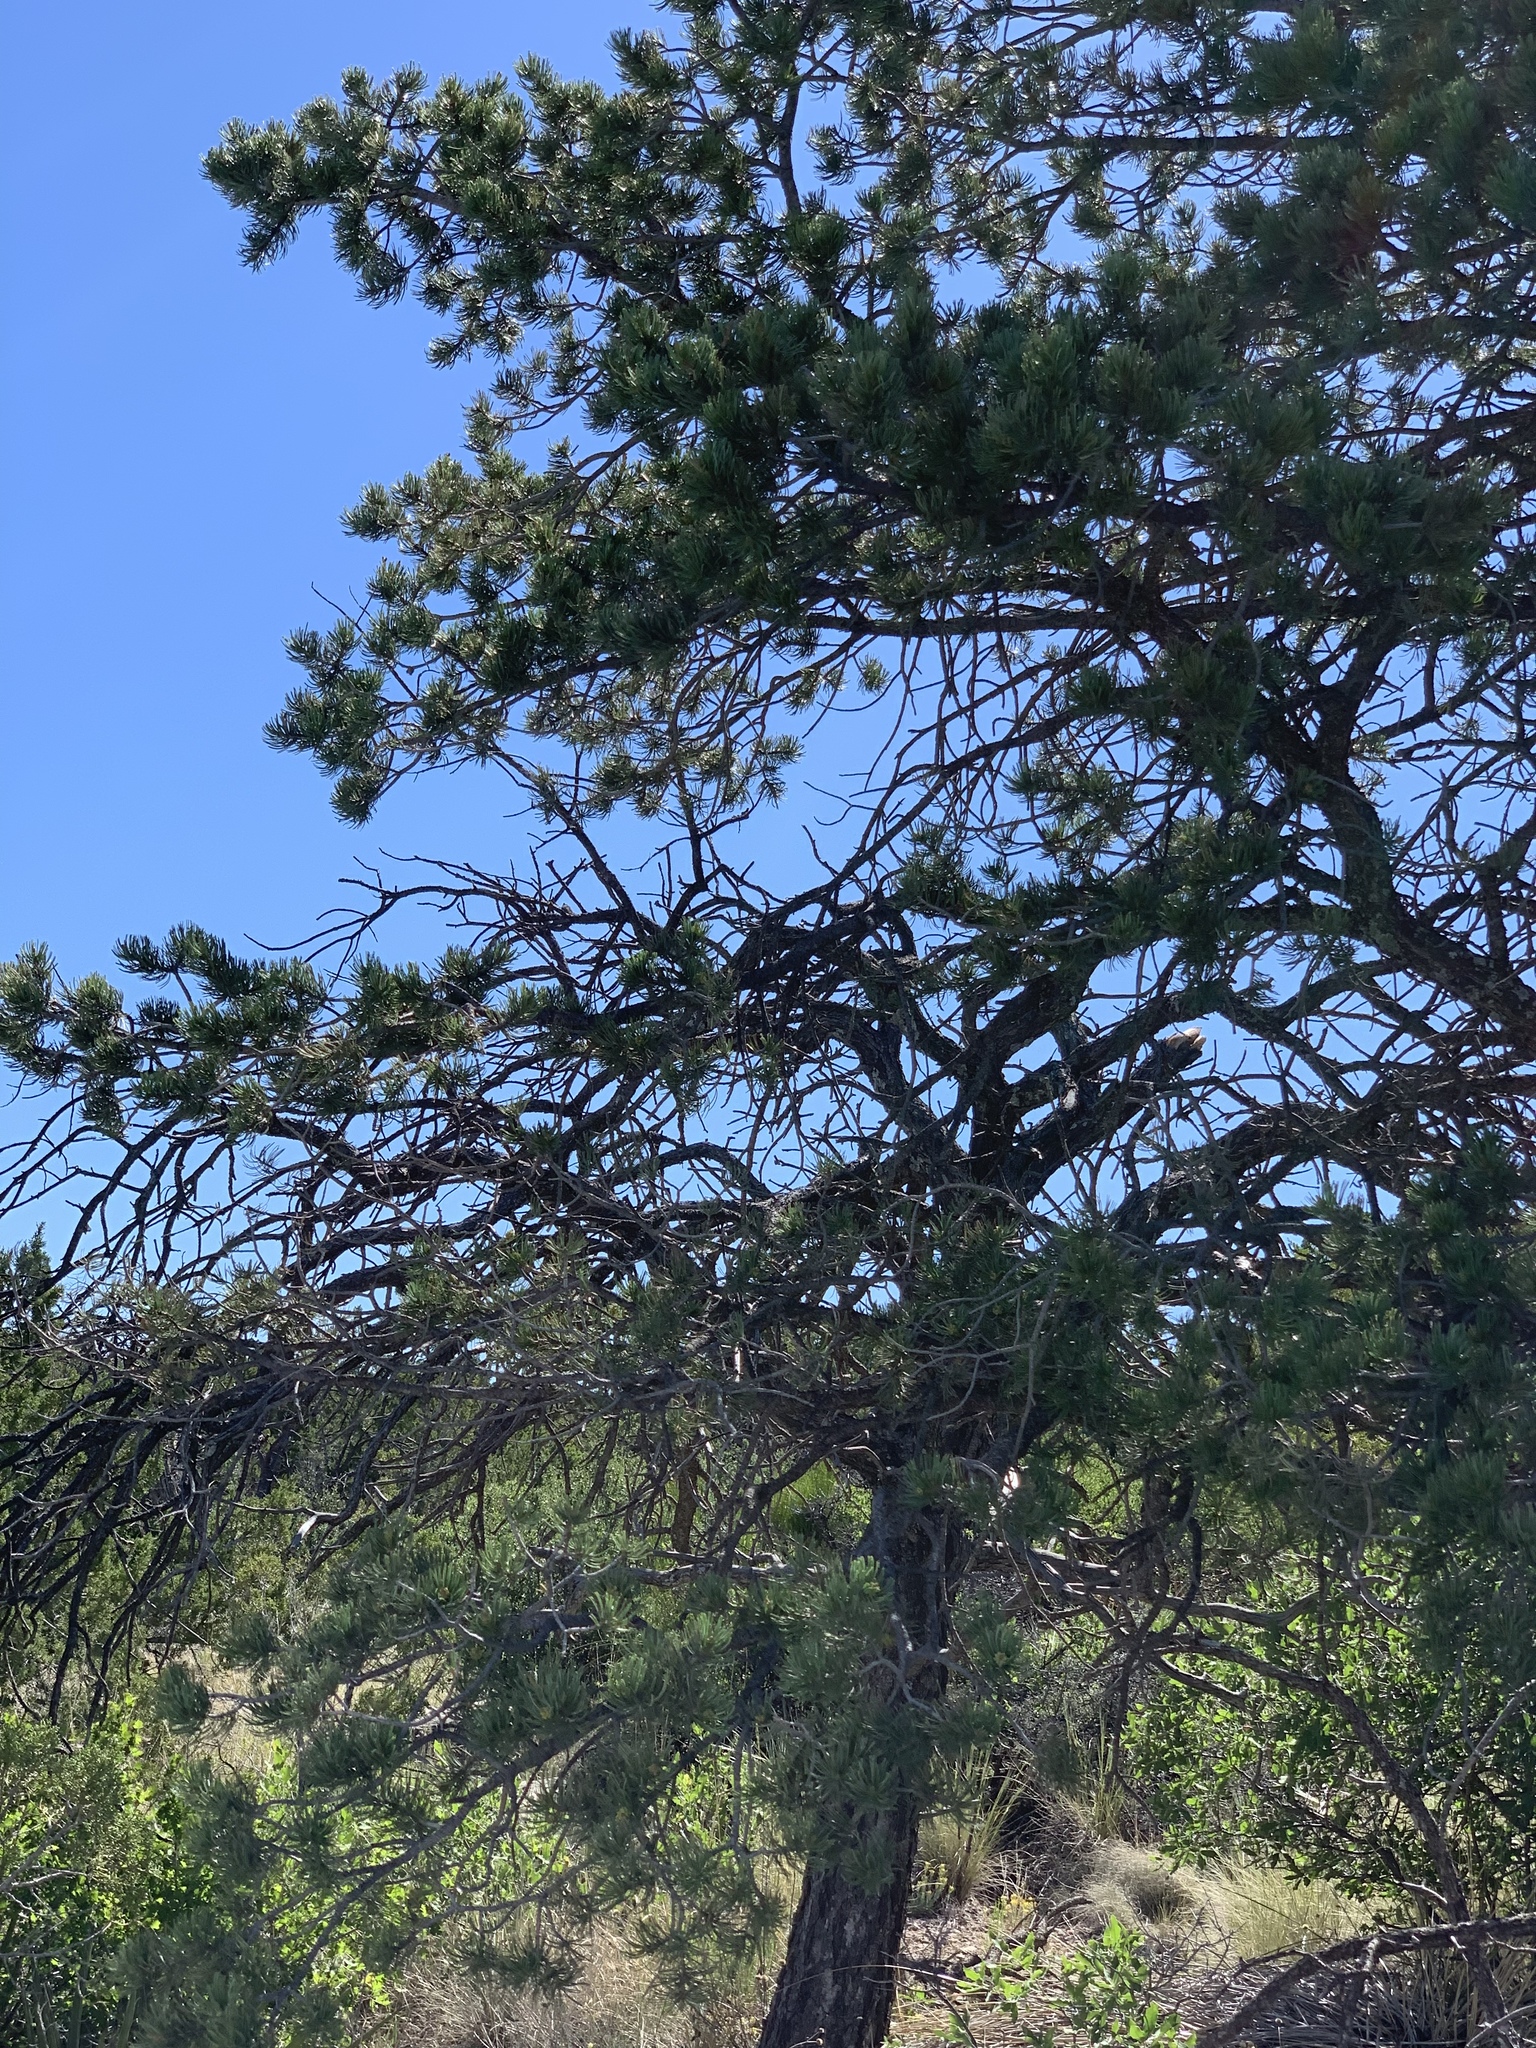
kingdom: Plantae
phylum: Tracheophyta
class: Pinopsida
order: Pinales
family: Pinaceae
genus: Pinus
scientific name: Pinus edulis
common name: Colorado pinyon
